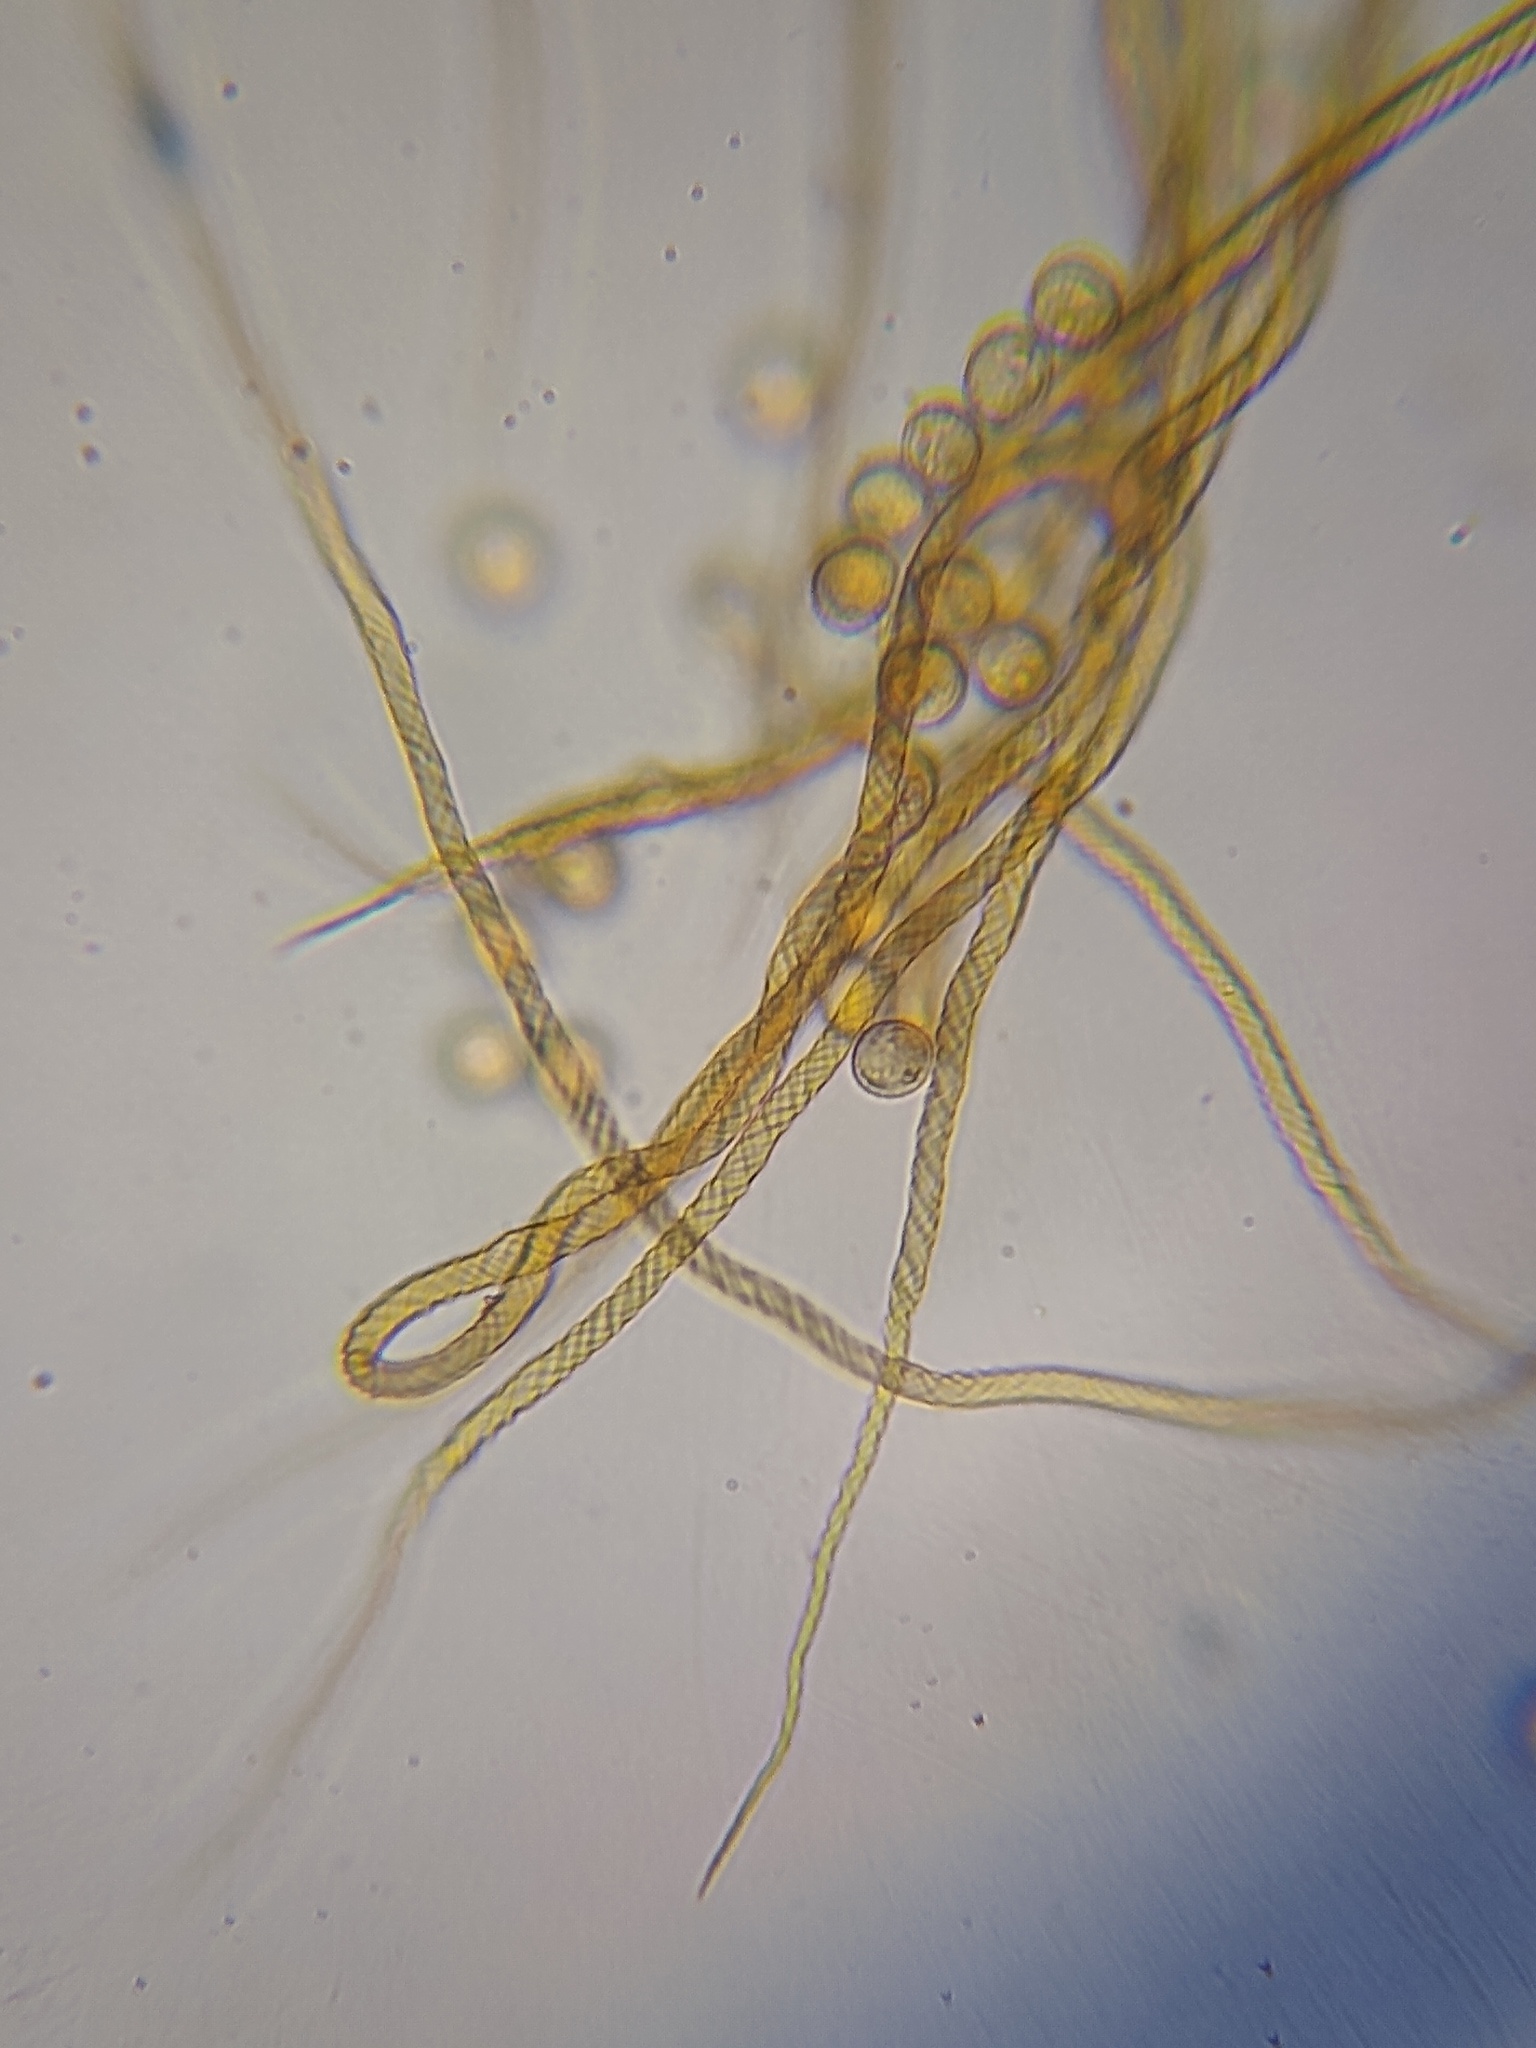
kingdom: Protozoa
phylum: Mycetozoa
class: Myxomycetes
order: Trichiales
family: Trichiaceae
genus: Trichia
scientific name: Trichia crateriformis
